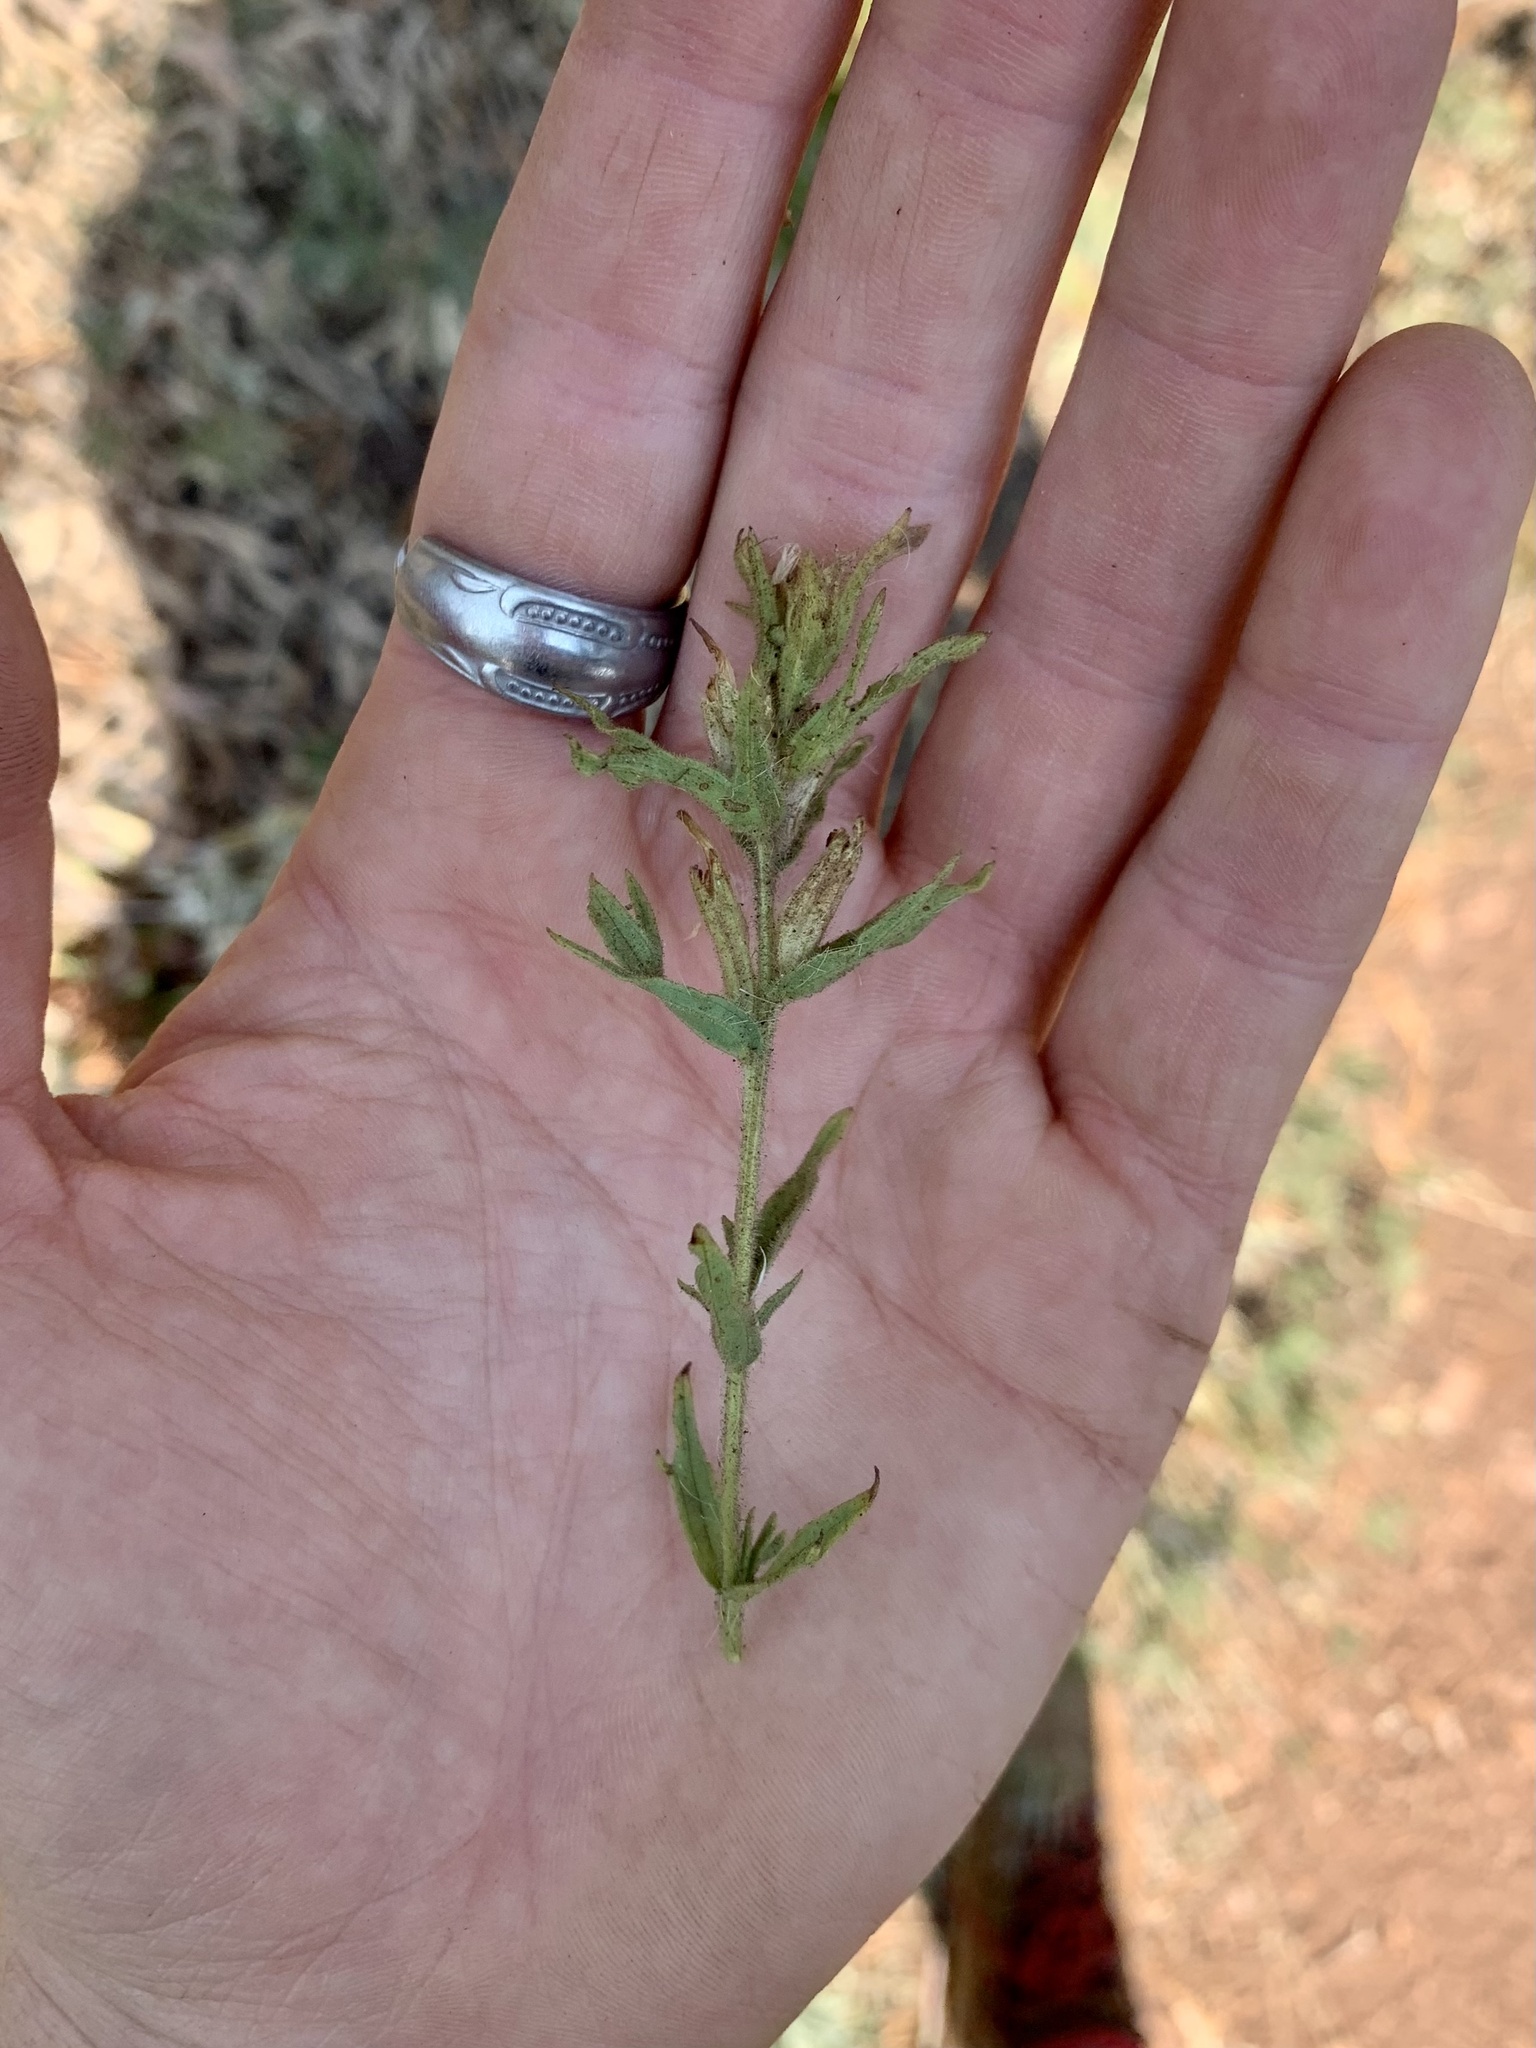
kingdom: Plantae
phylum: Tracheophyta
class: Magnoliopsida
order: Lamiales
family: Orobanchaceae
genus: Castilleja
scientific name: Castilleja glandulifera
